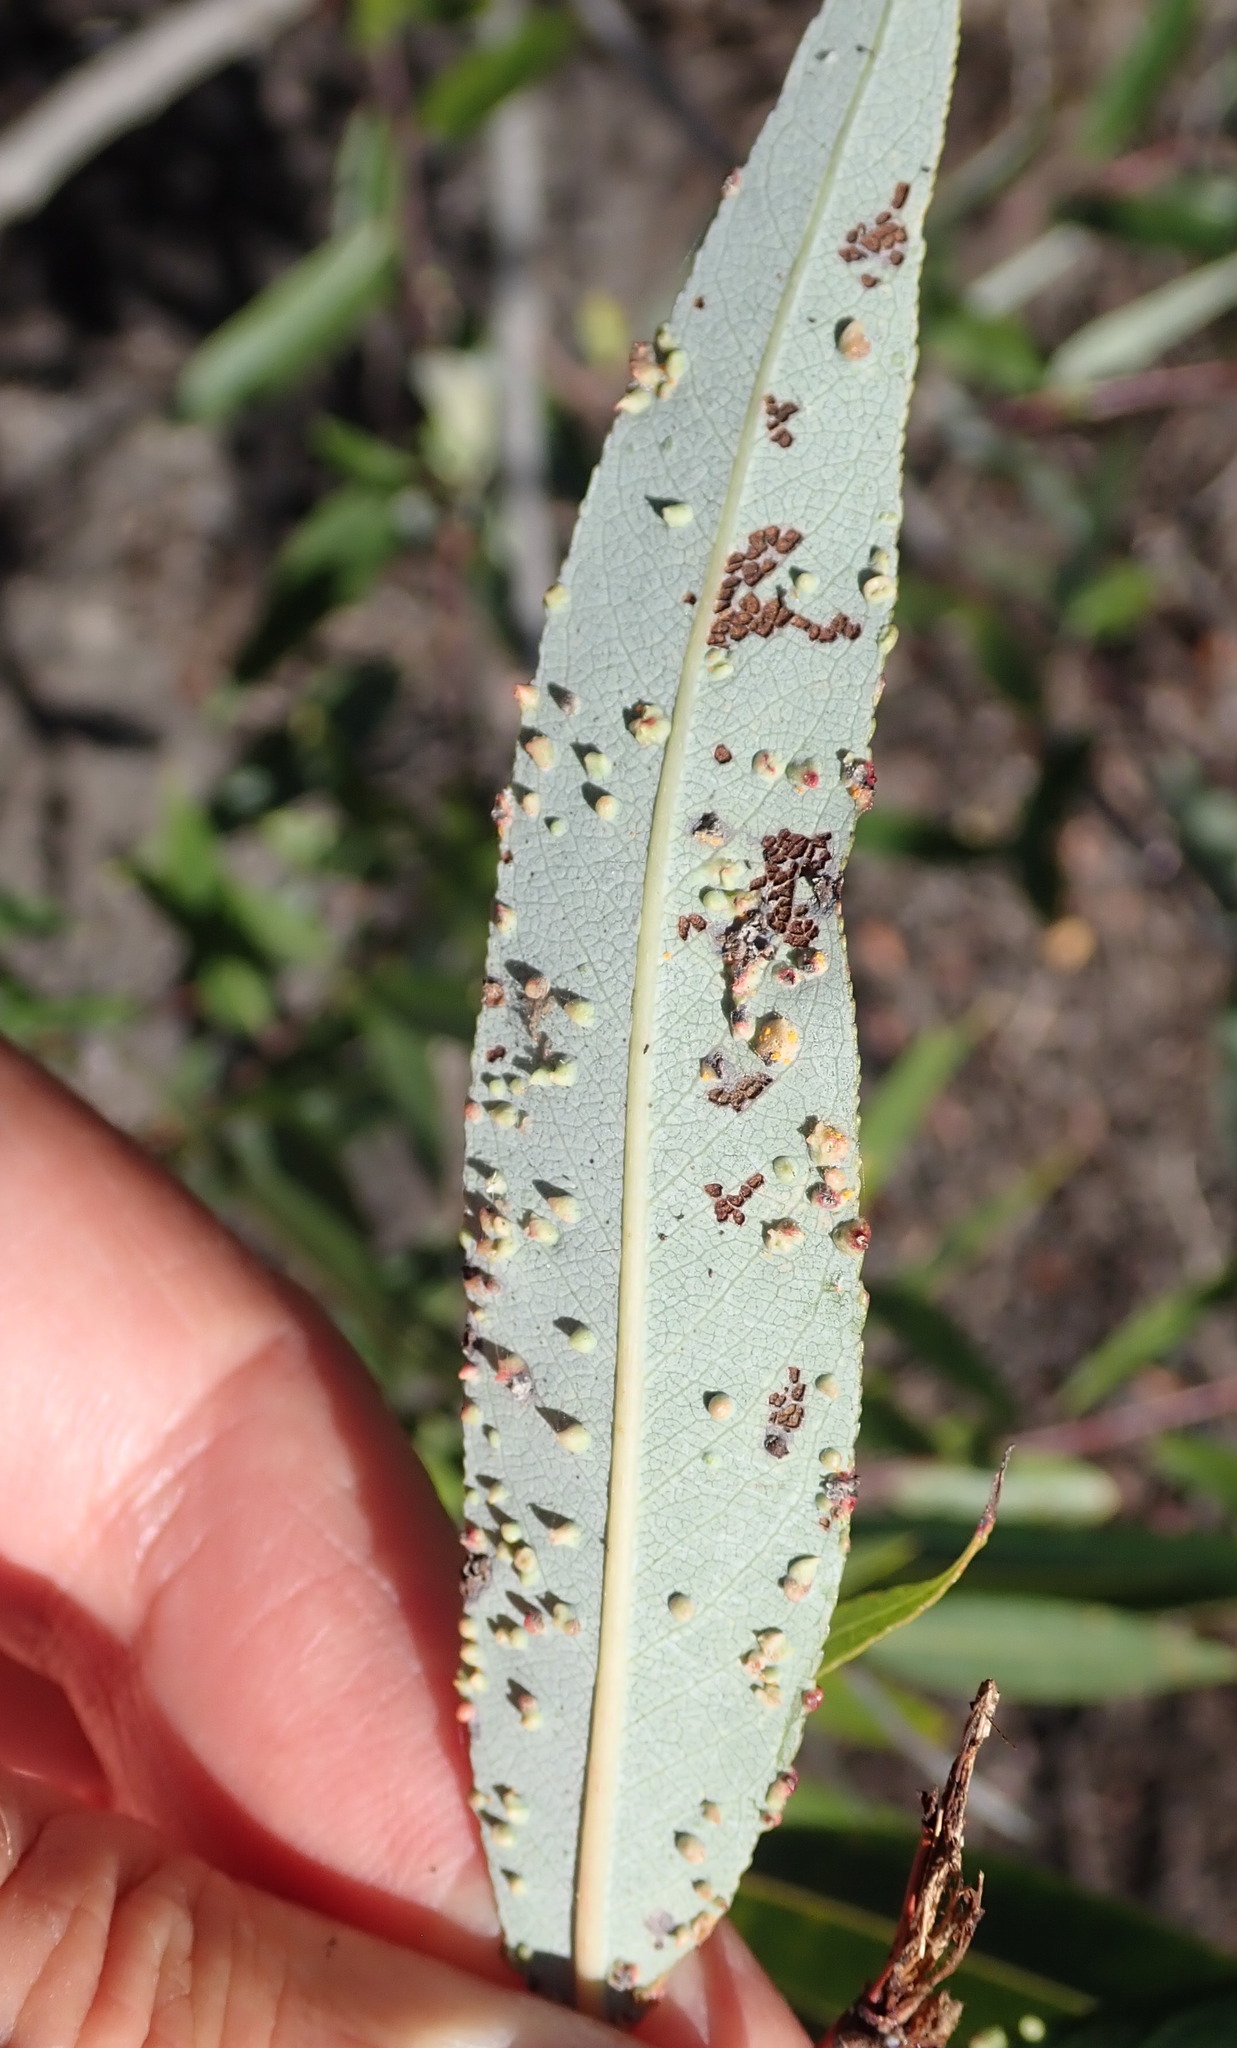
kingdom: Animalia
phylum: Arthropoda
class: Arachnida
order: Trombidiformes
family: Eriophyidae
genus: Aculus
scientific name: Aculus
